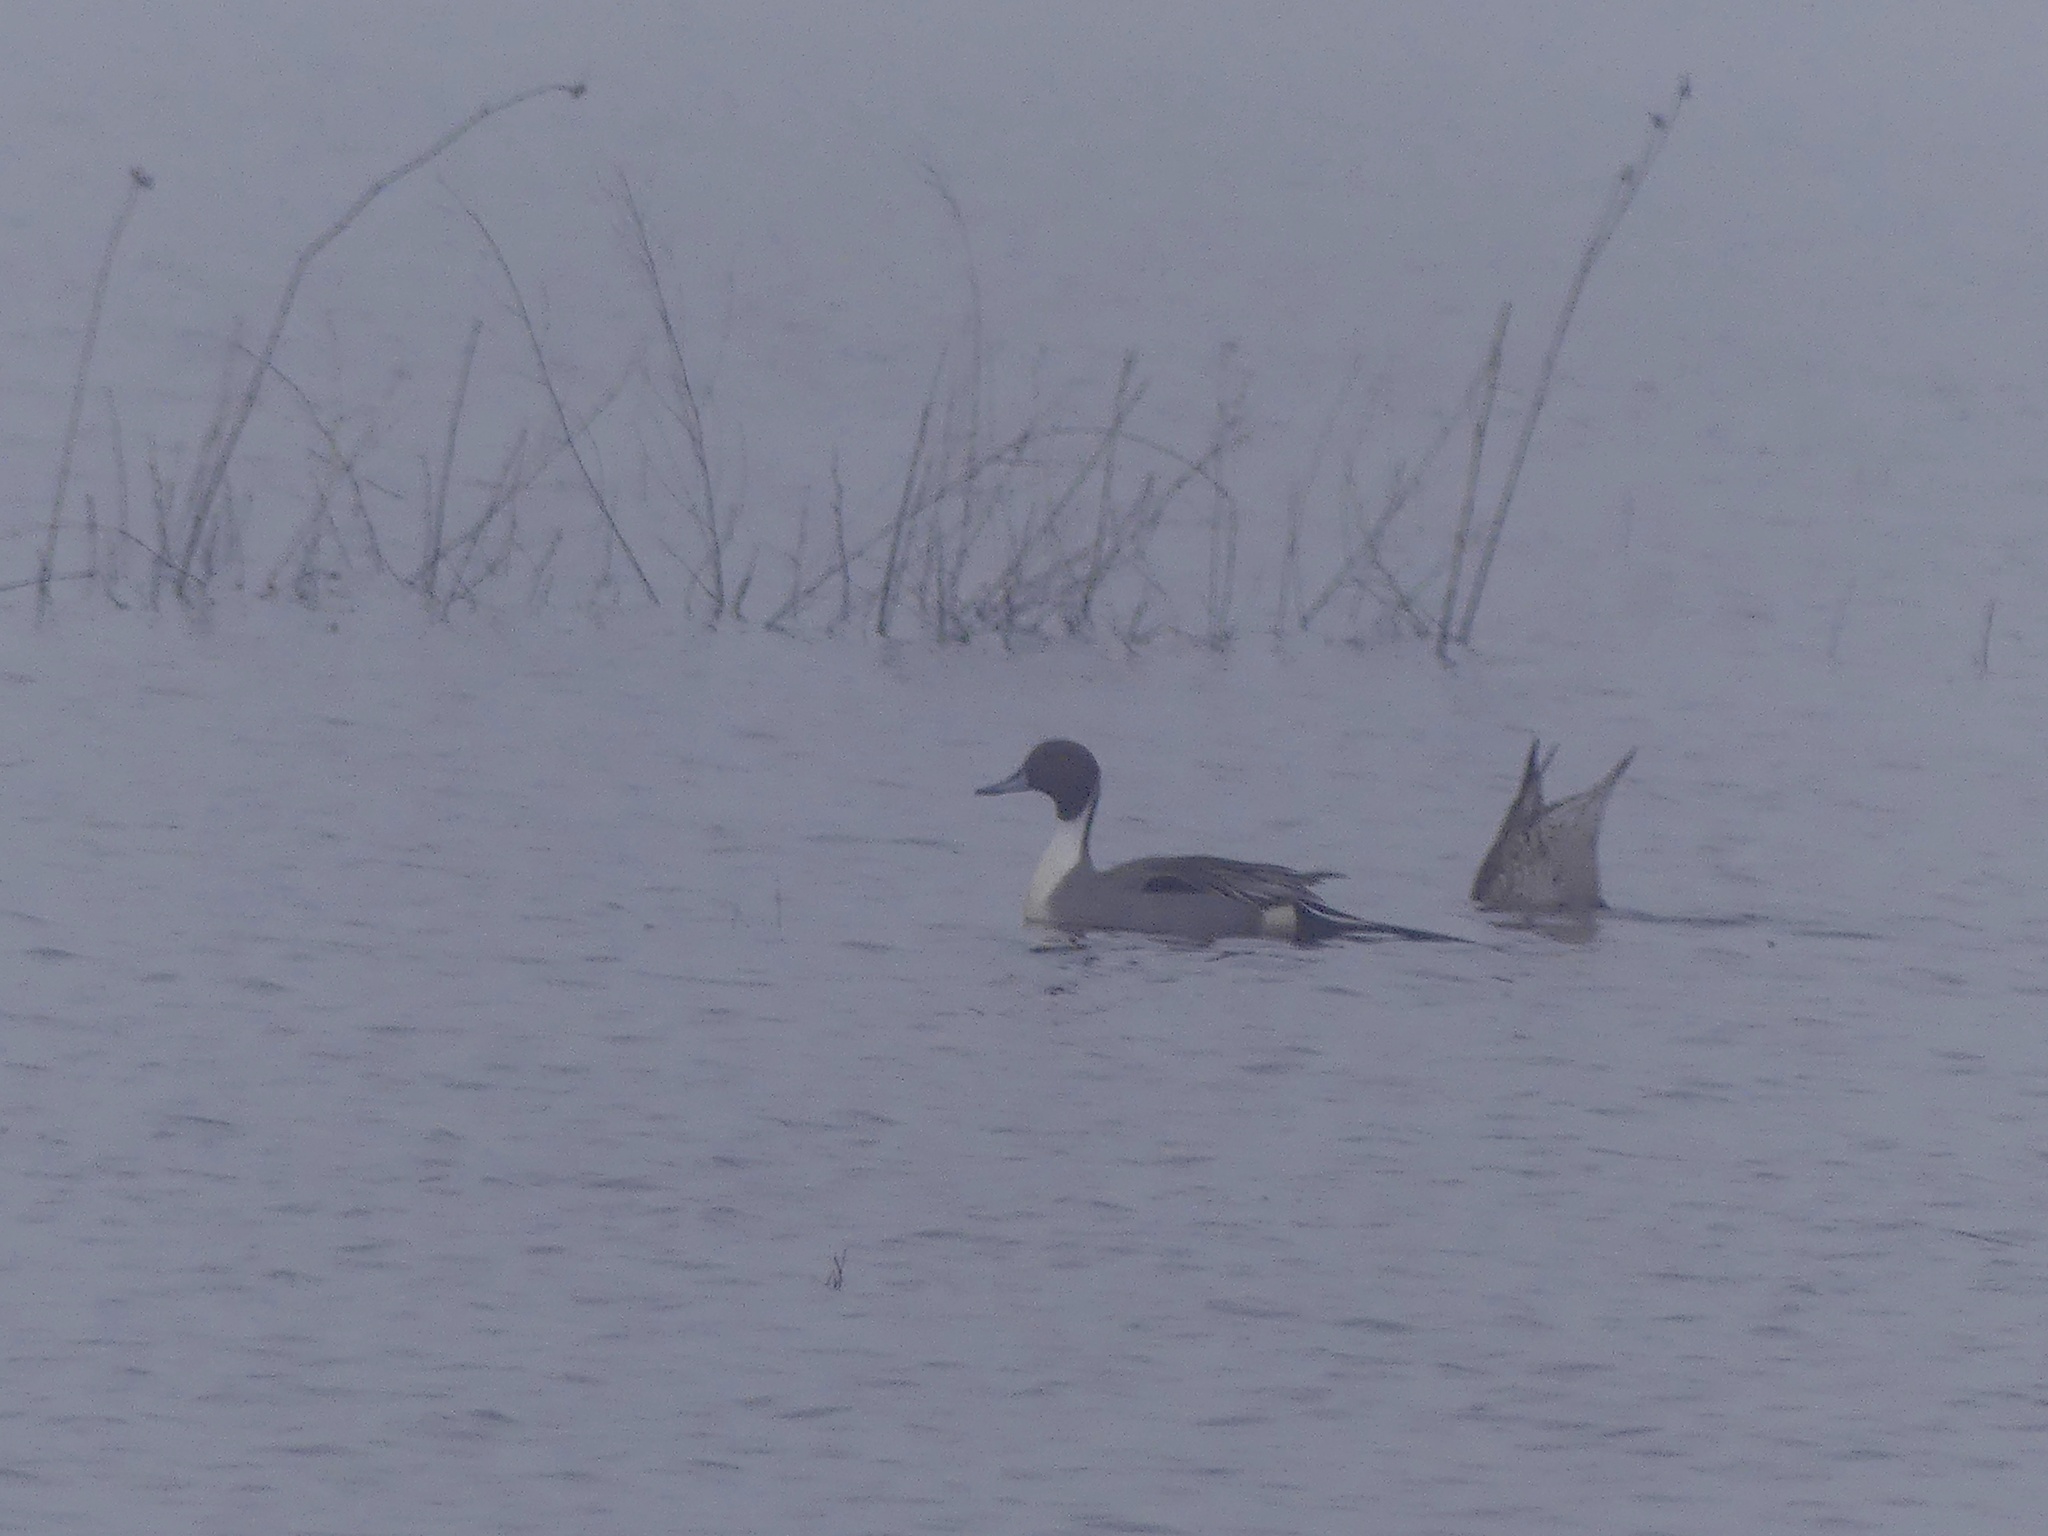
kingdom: Animalia
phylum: Chordata
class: Aves
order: Anseriformes
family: Anatidae
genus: Anas
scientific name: Anas acuta
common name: Northern pintail
